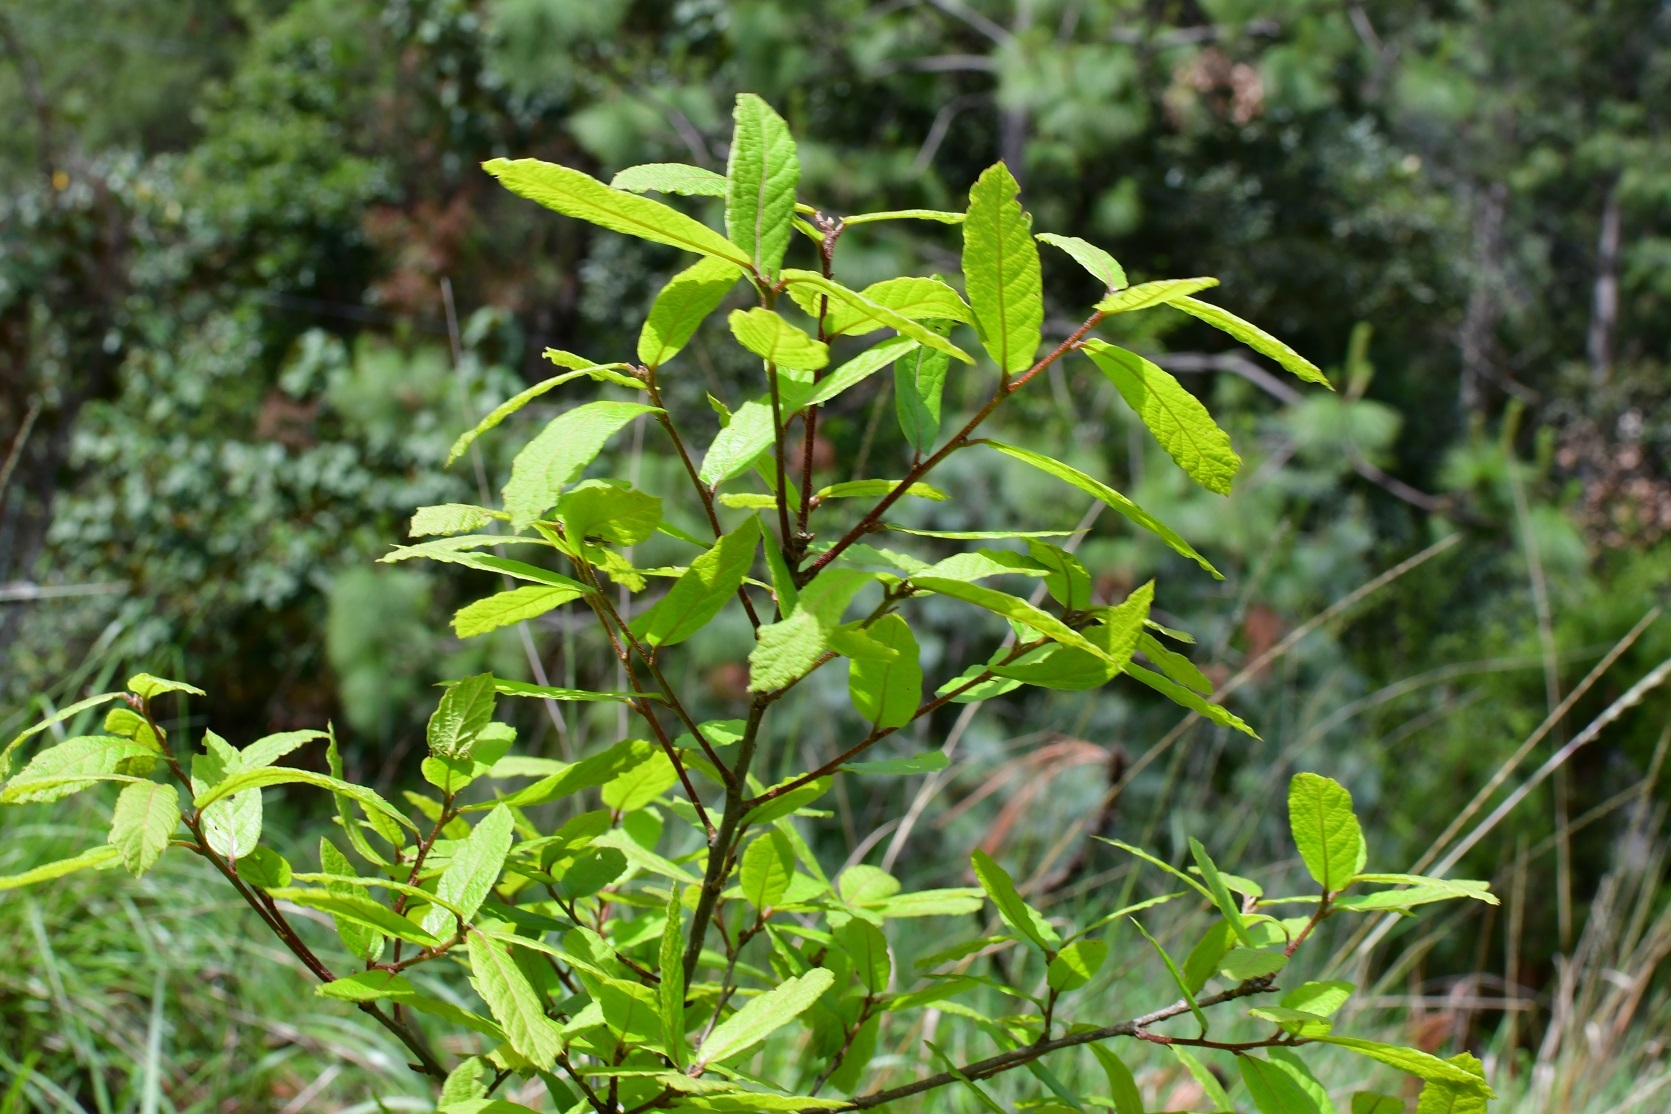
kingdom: Plantae
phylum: Tracheophyta
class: Magnoliopsida
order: Fagales
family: Fagaceae
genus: Quercus
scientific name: Quercus castanea
